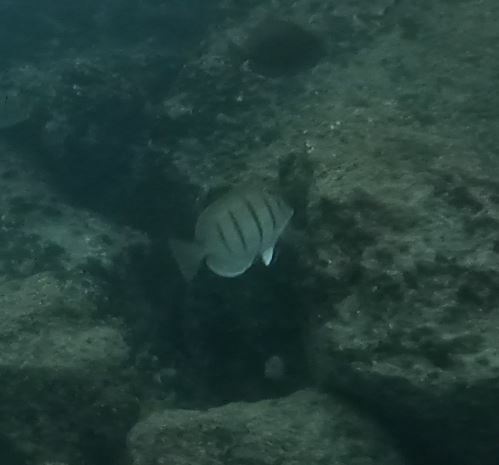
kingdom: Animalia
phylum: Chordata
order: Perciformes
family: Acanthuridae
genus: Acanthurus
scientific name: Acanthurus triostegus
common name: Convict surgeonfish
